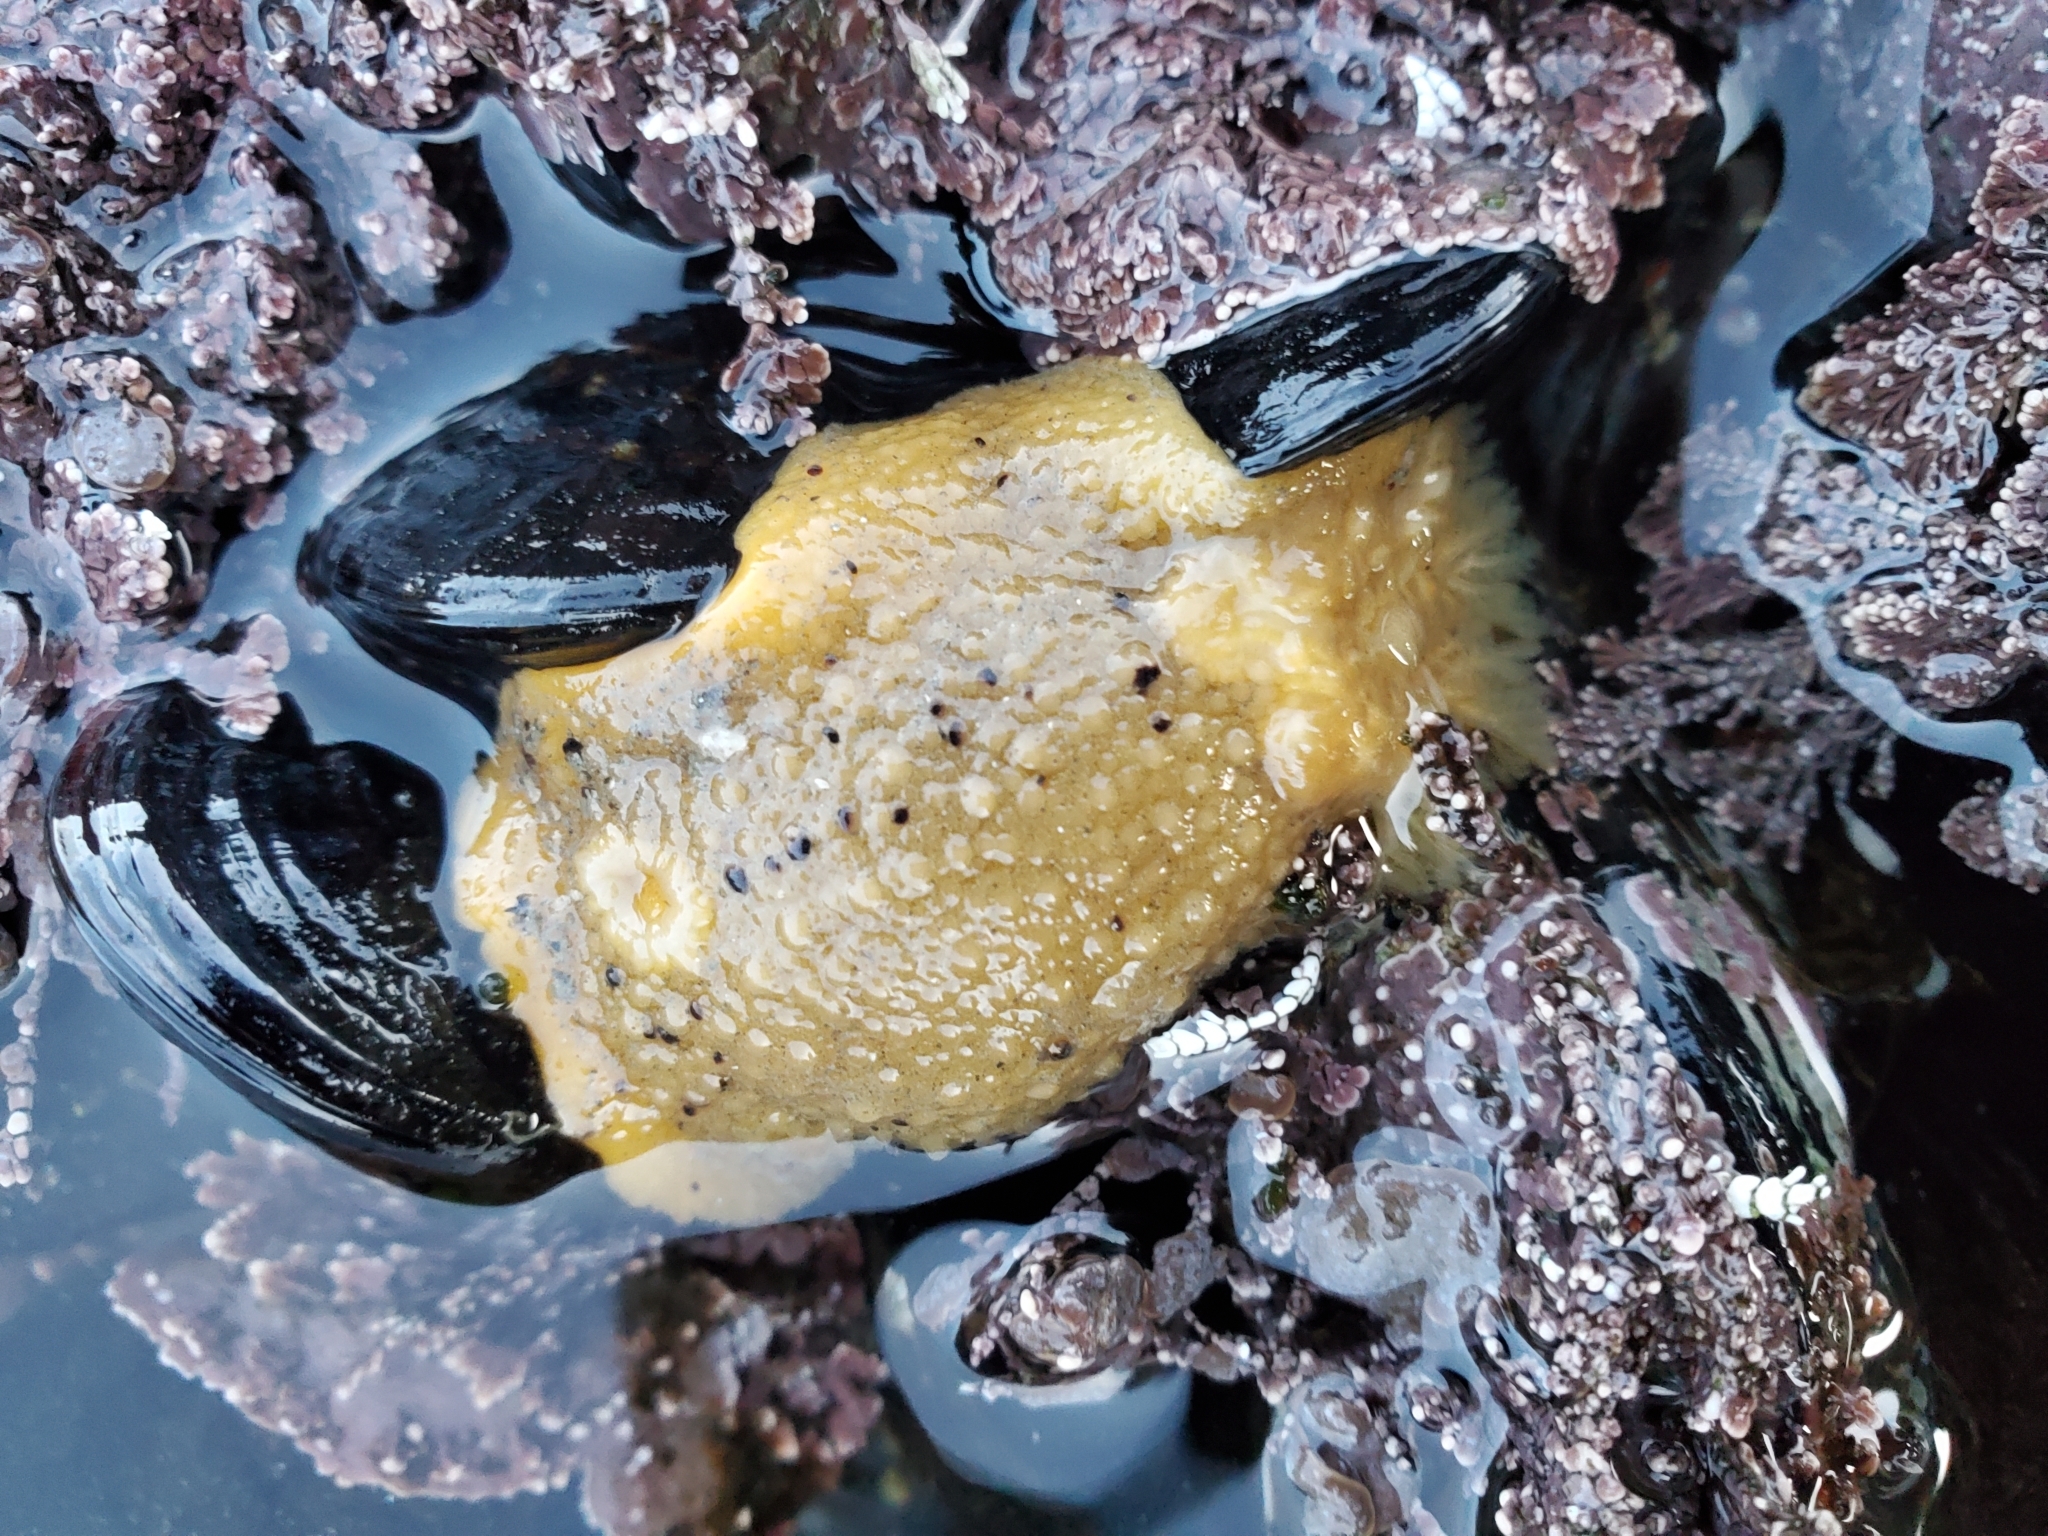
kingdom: Animalia
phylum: Mollusca
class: Gastropoda
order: Nudibranchia
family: Dorididae
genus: Doris
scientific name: Doris montereyensis
